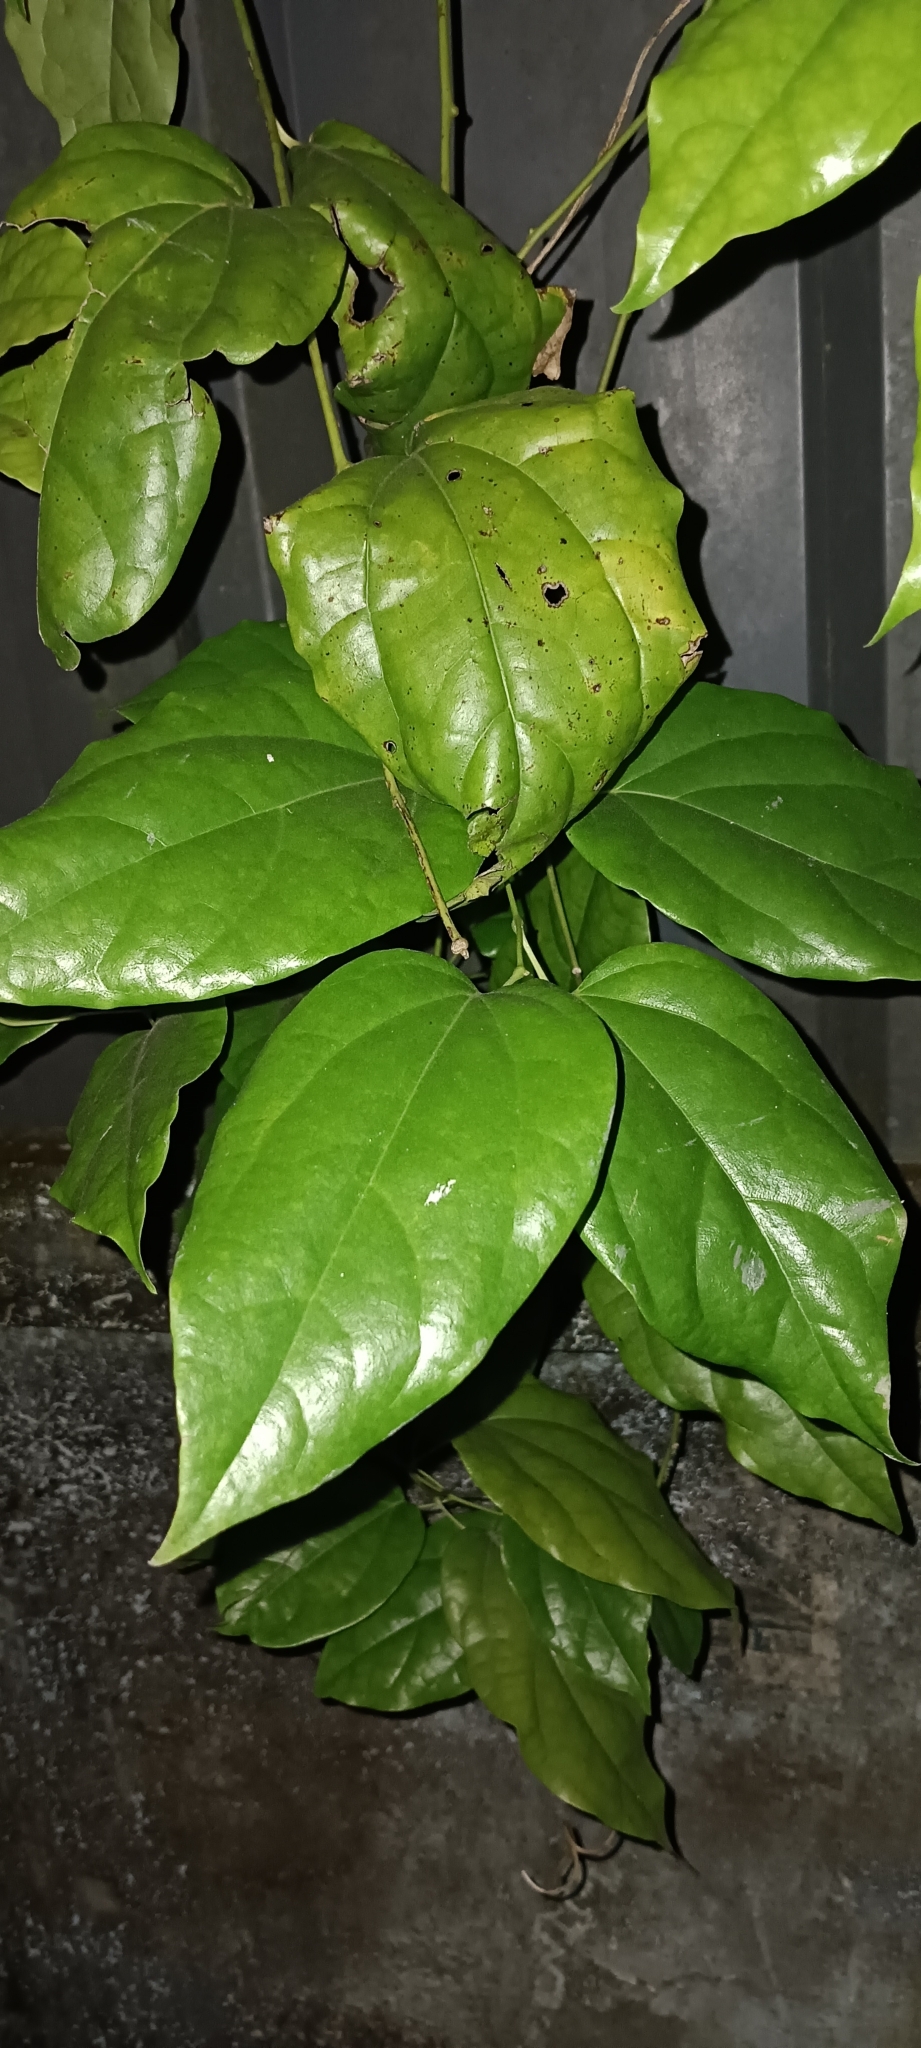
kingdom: Plantae
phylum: Tracheophyta
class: Magnoliopsida
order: Ranunculales
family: Menispermaceae
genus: Tiliacora
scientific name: Tiliacora acuminata
